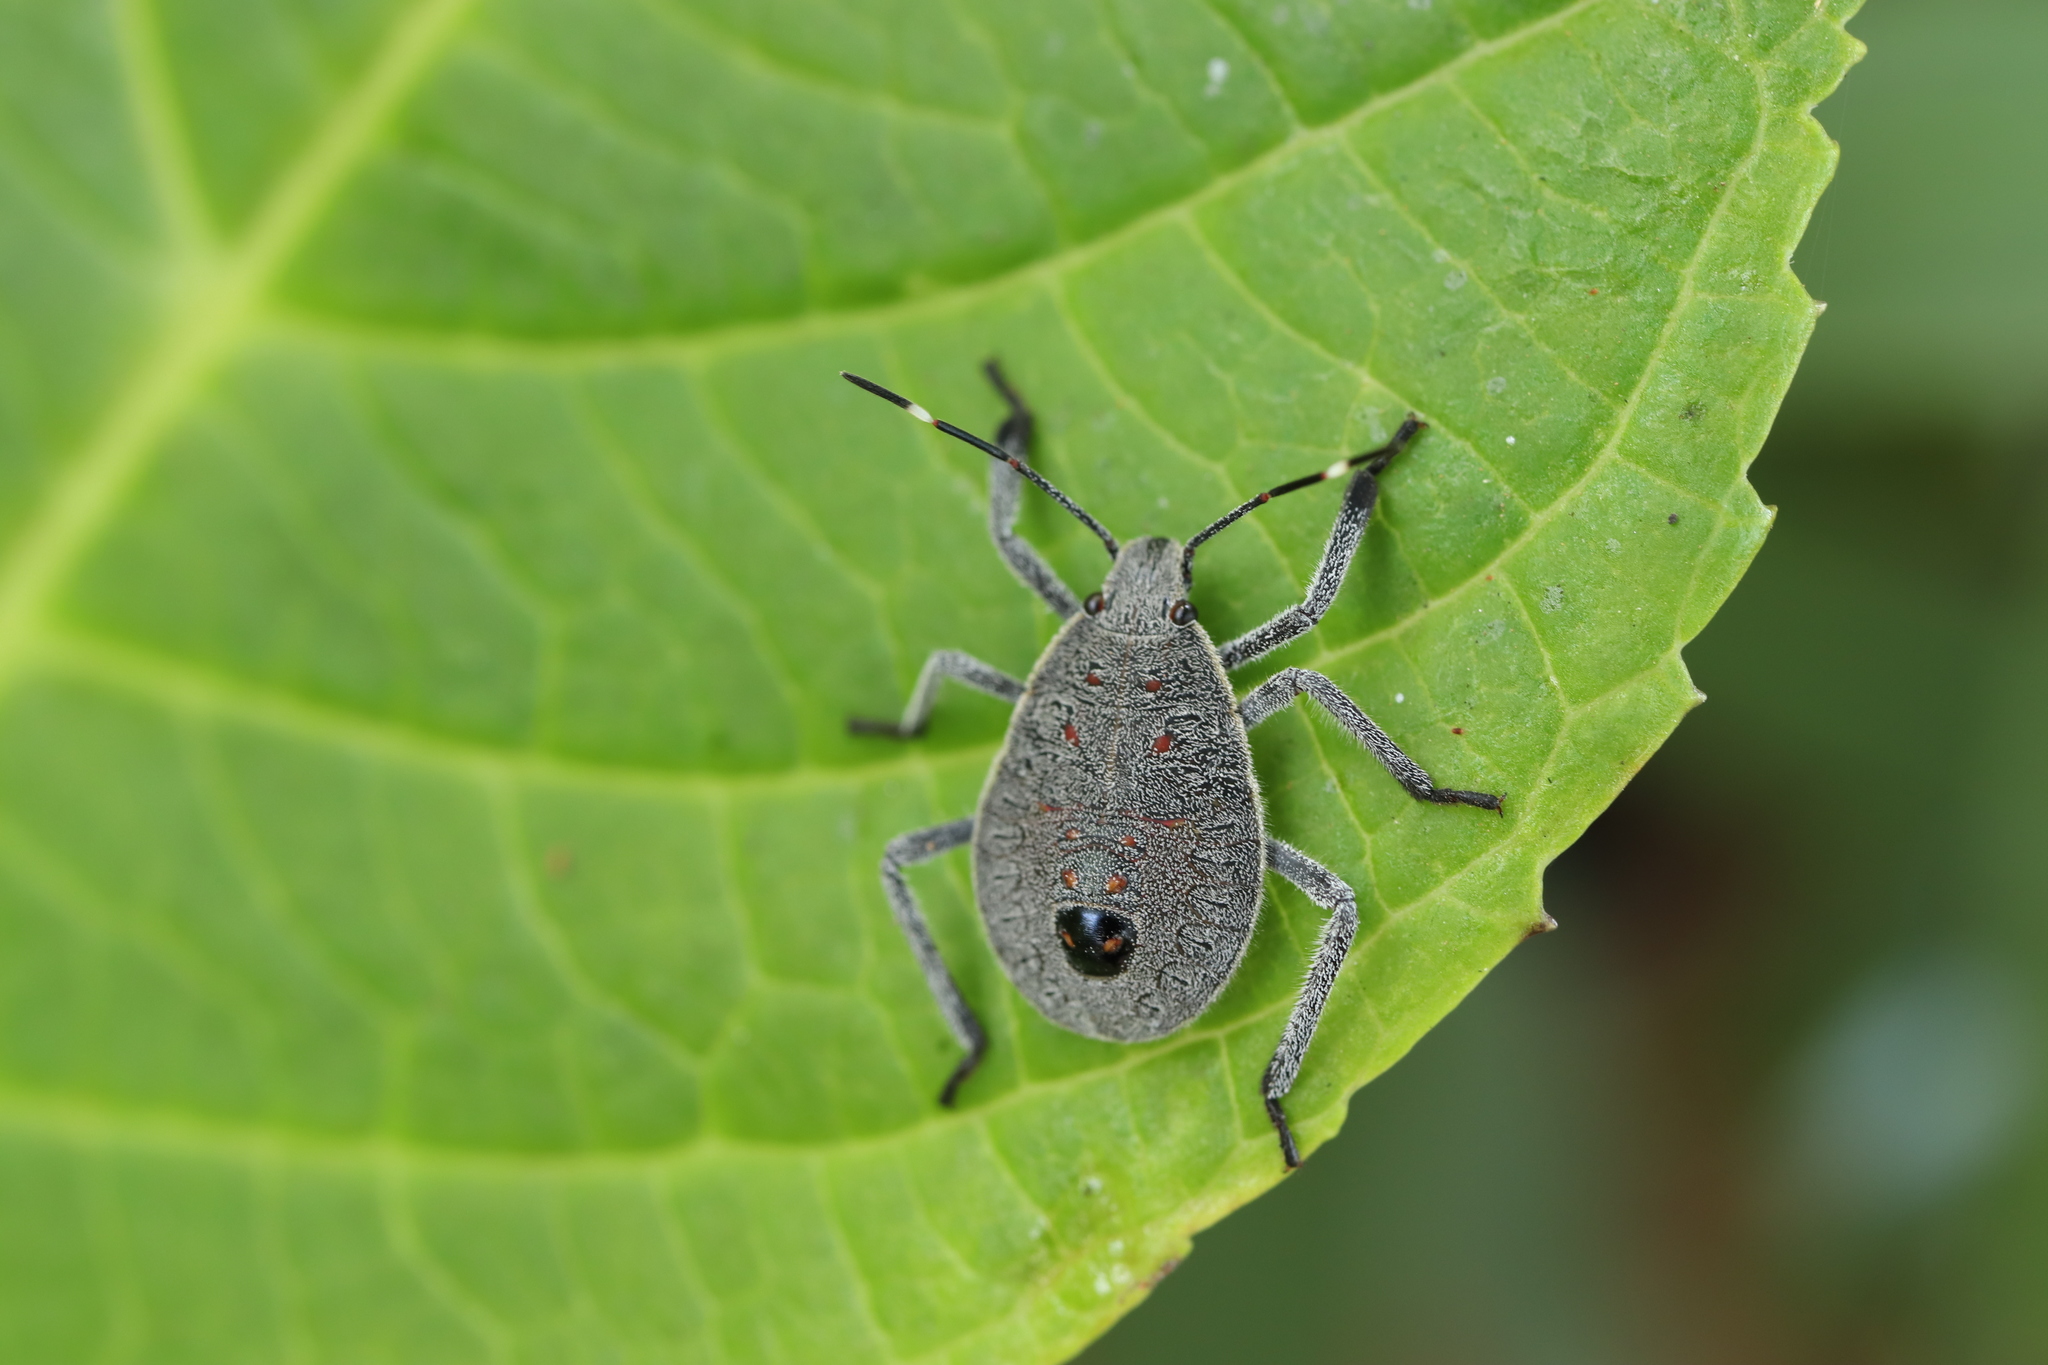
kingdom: Animalia
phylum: Arthropoda
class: Insecta
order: Hemiptera
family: Pentatomidae
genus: Erthesina
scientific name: Erthesina fullo
